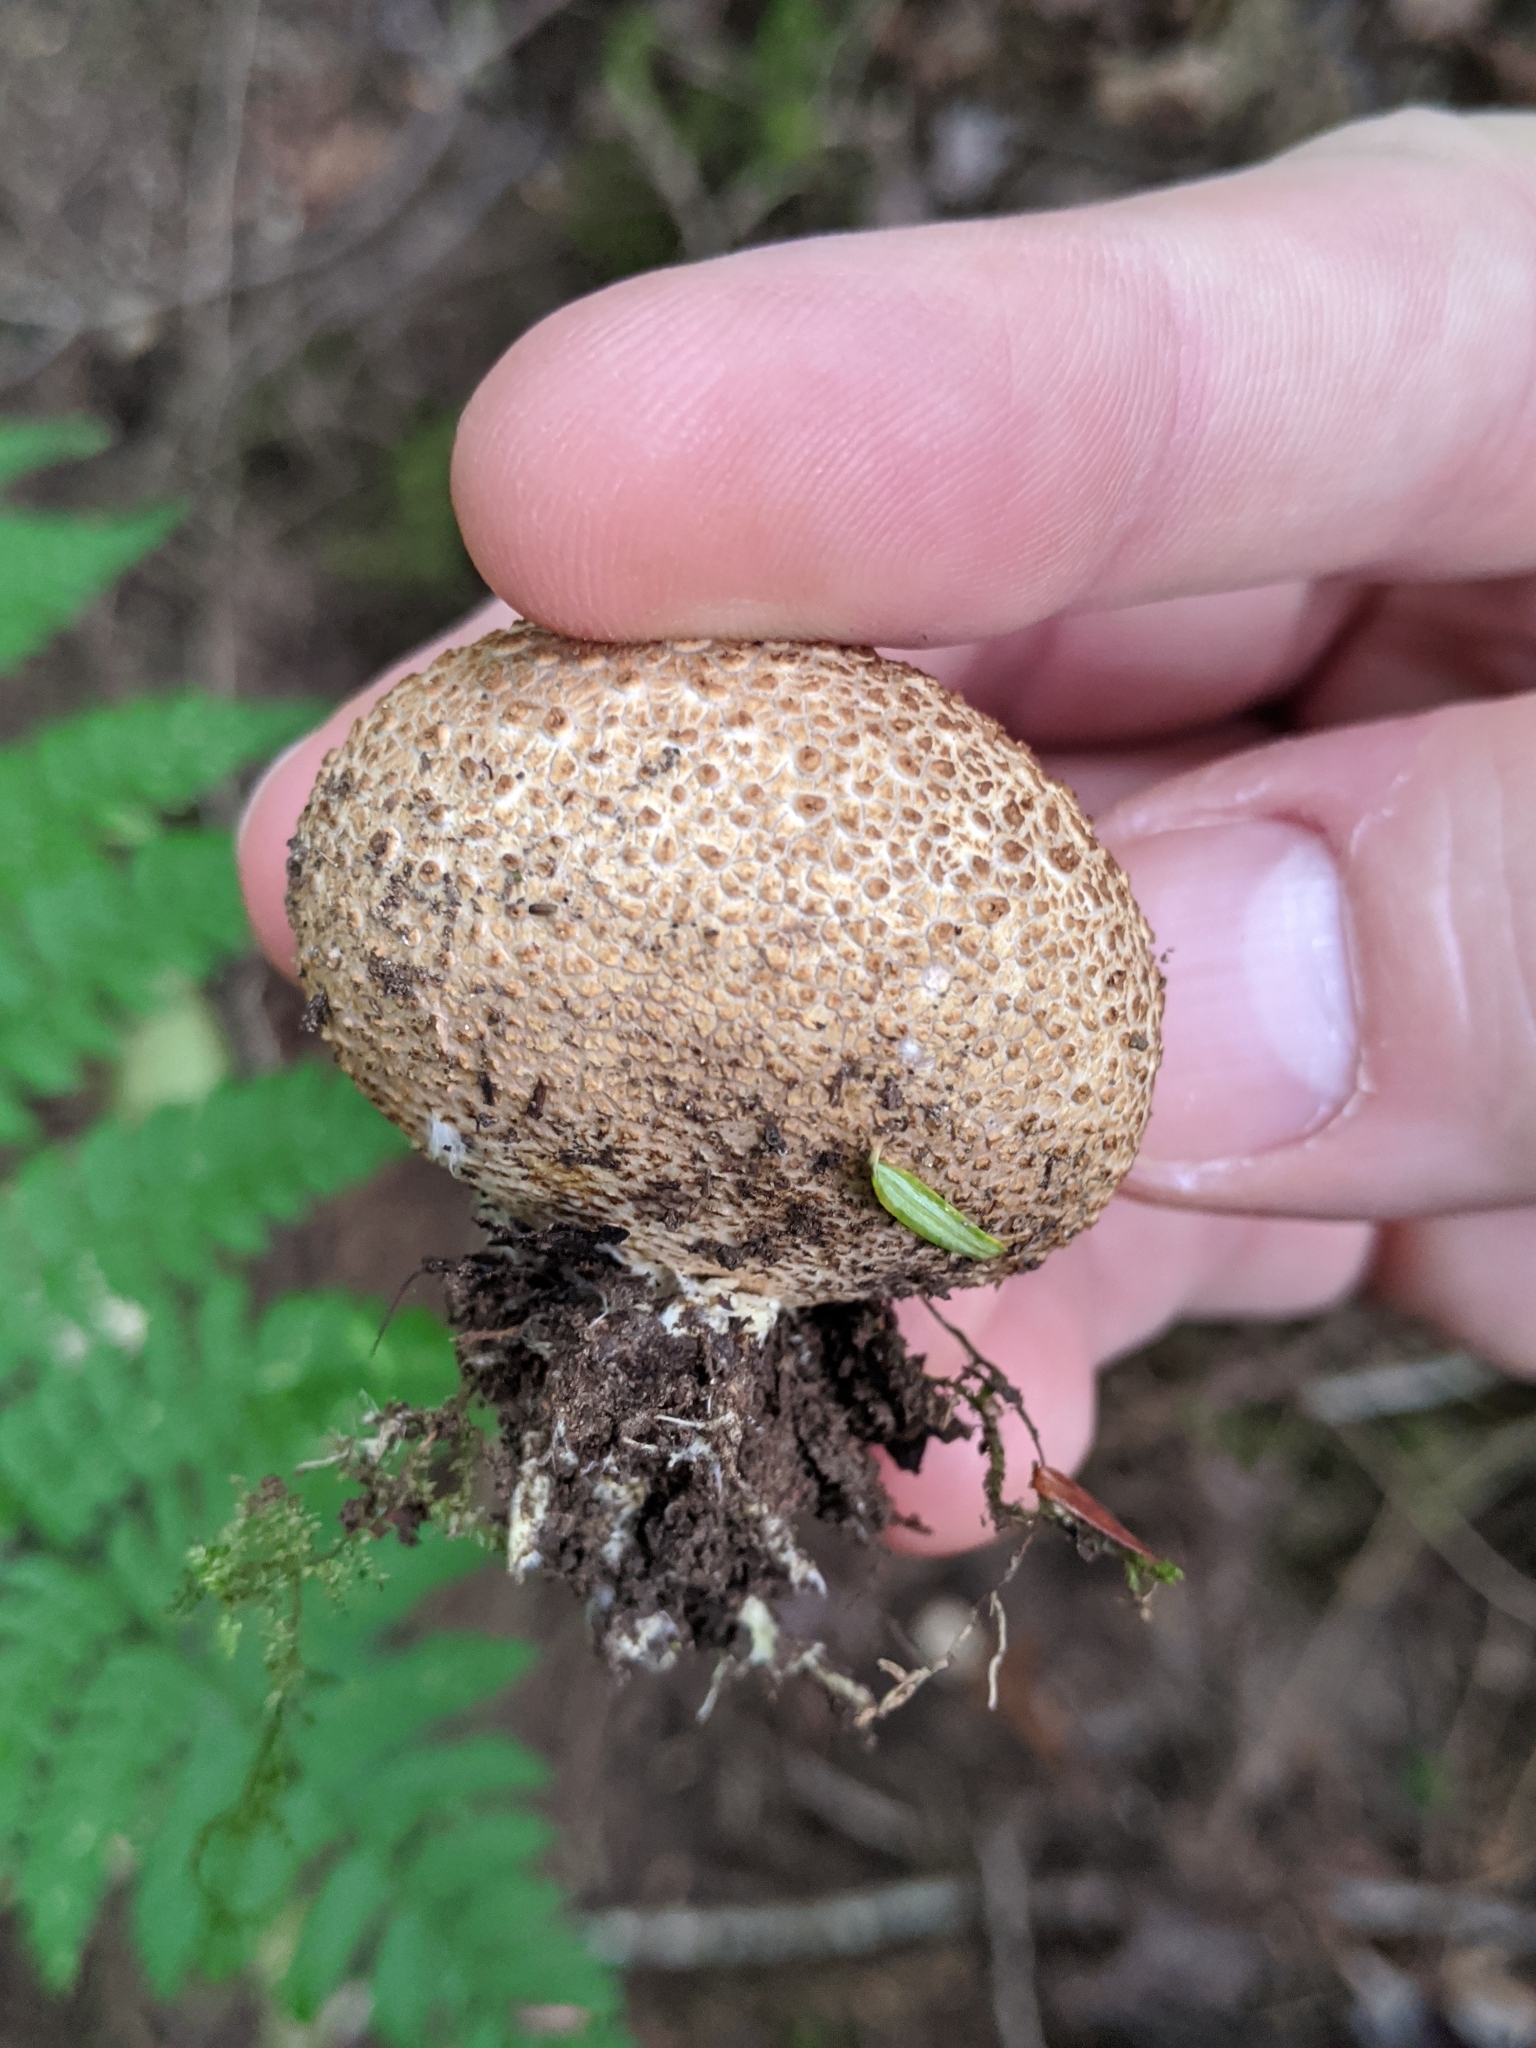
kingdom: Fungi
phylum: Basidiomycota
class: Agaricomycetes
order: Boletales
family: Sclerodermataceae
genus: Scleroderma
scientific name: Scleroderma citrinum
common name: Common earthball
